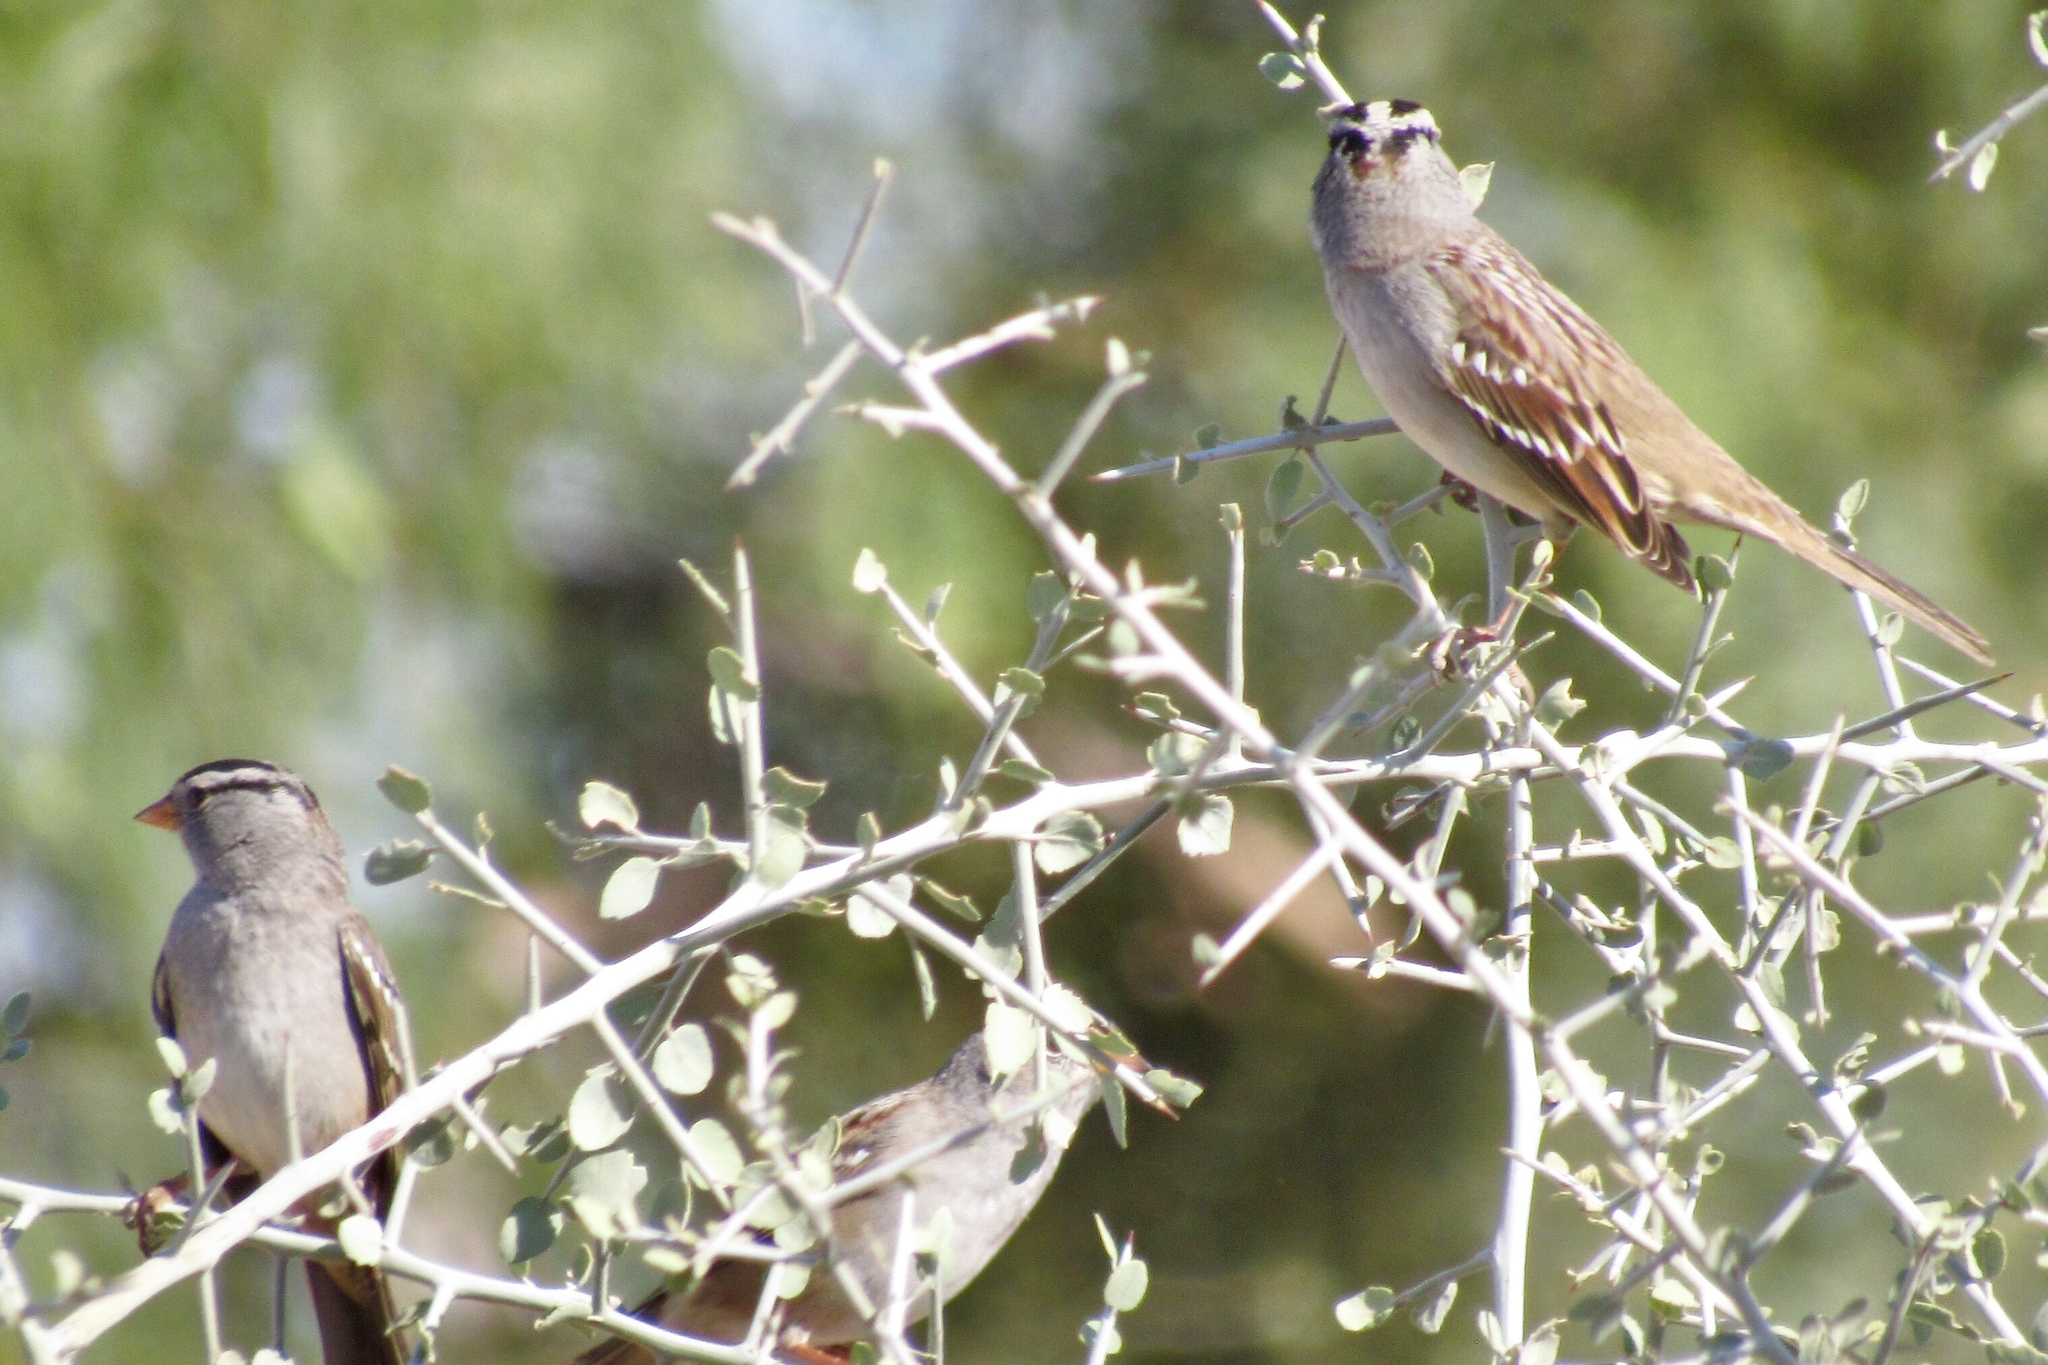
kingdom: Animalia
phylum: Chordata
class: Aves
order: Passeriformes
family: Passerellidae
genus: Zonotrichia
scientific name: Zonotrichia leucophrys
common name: White-crowned sparrow
